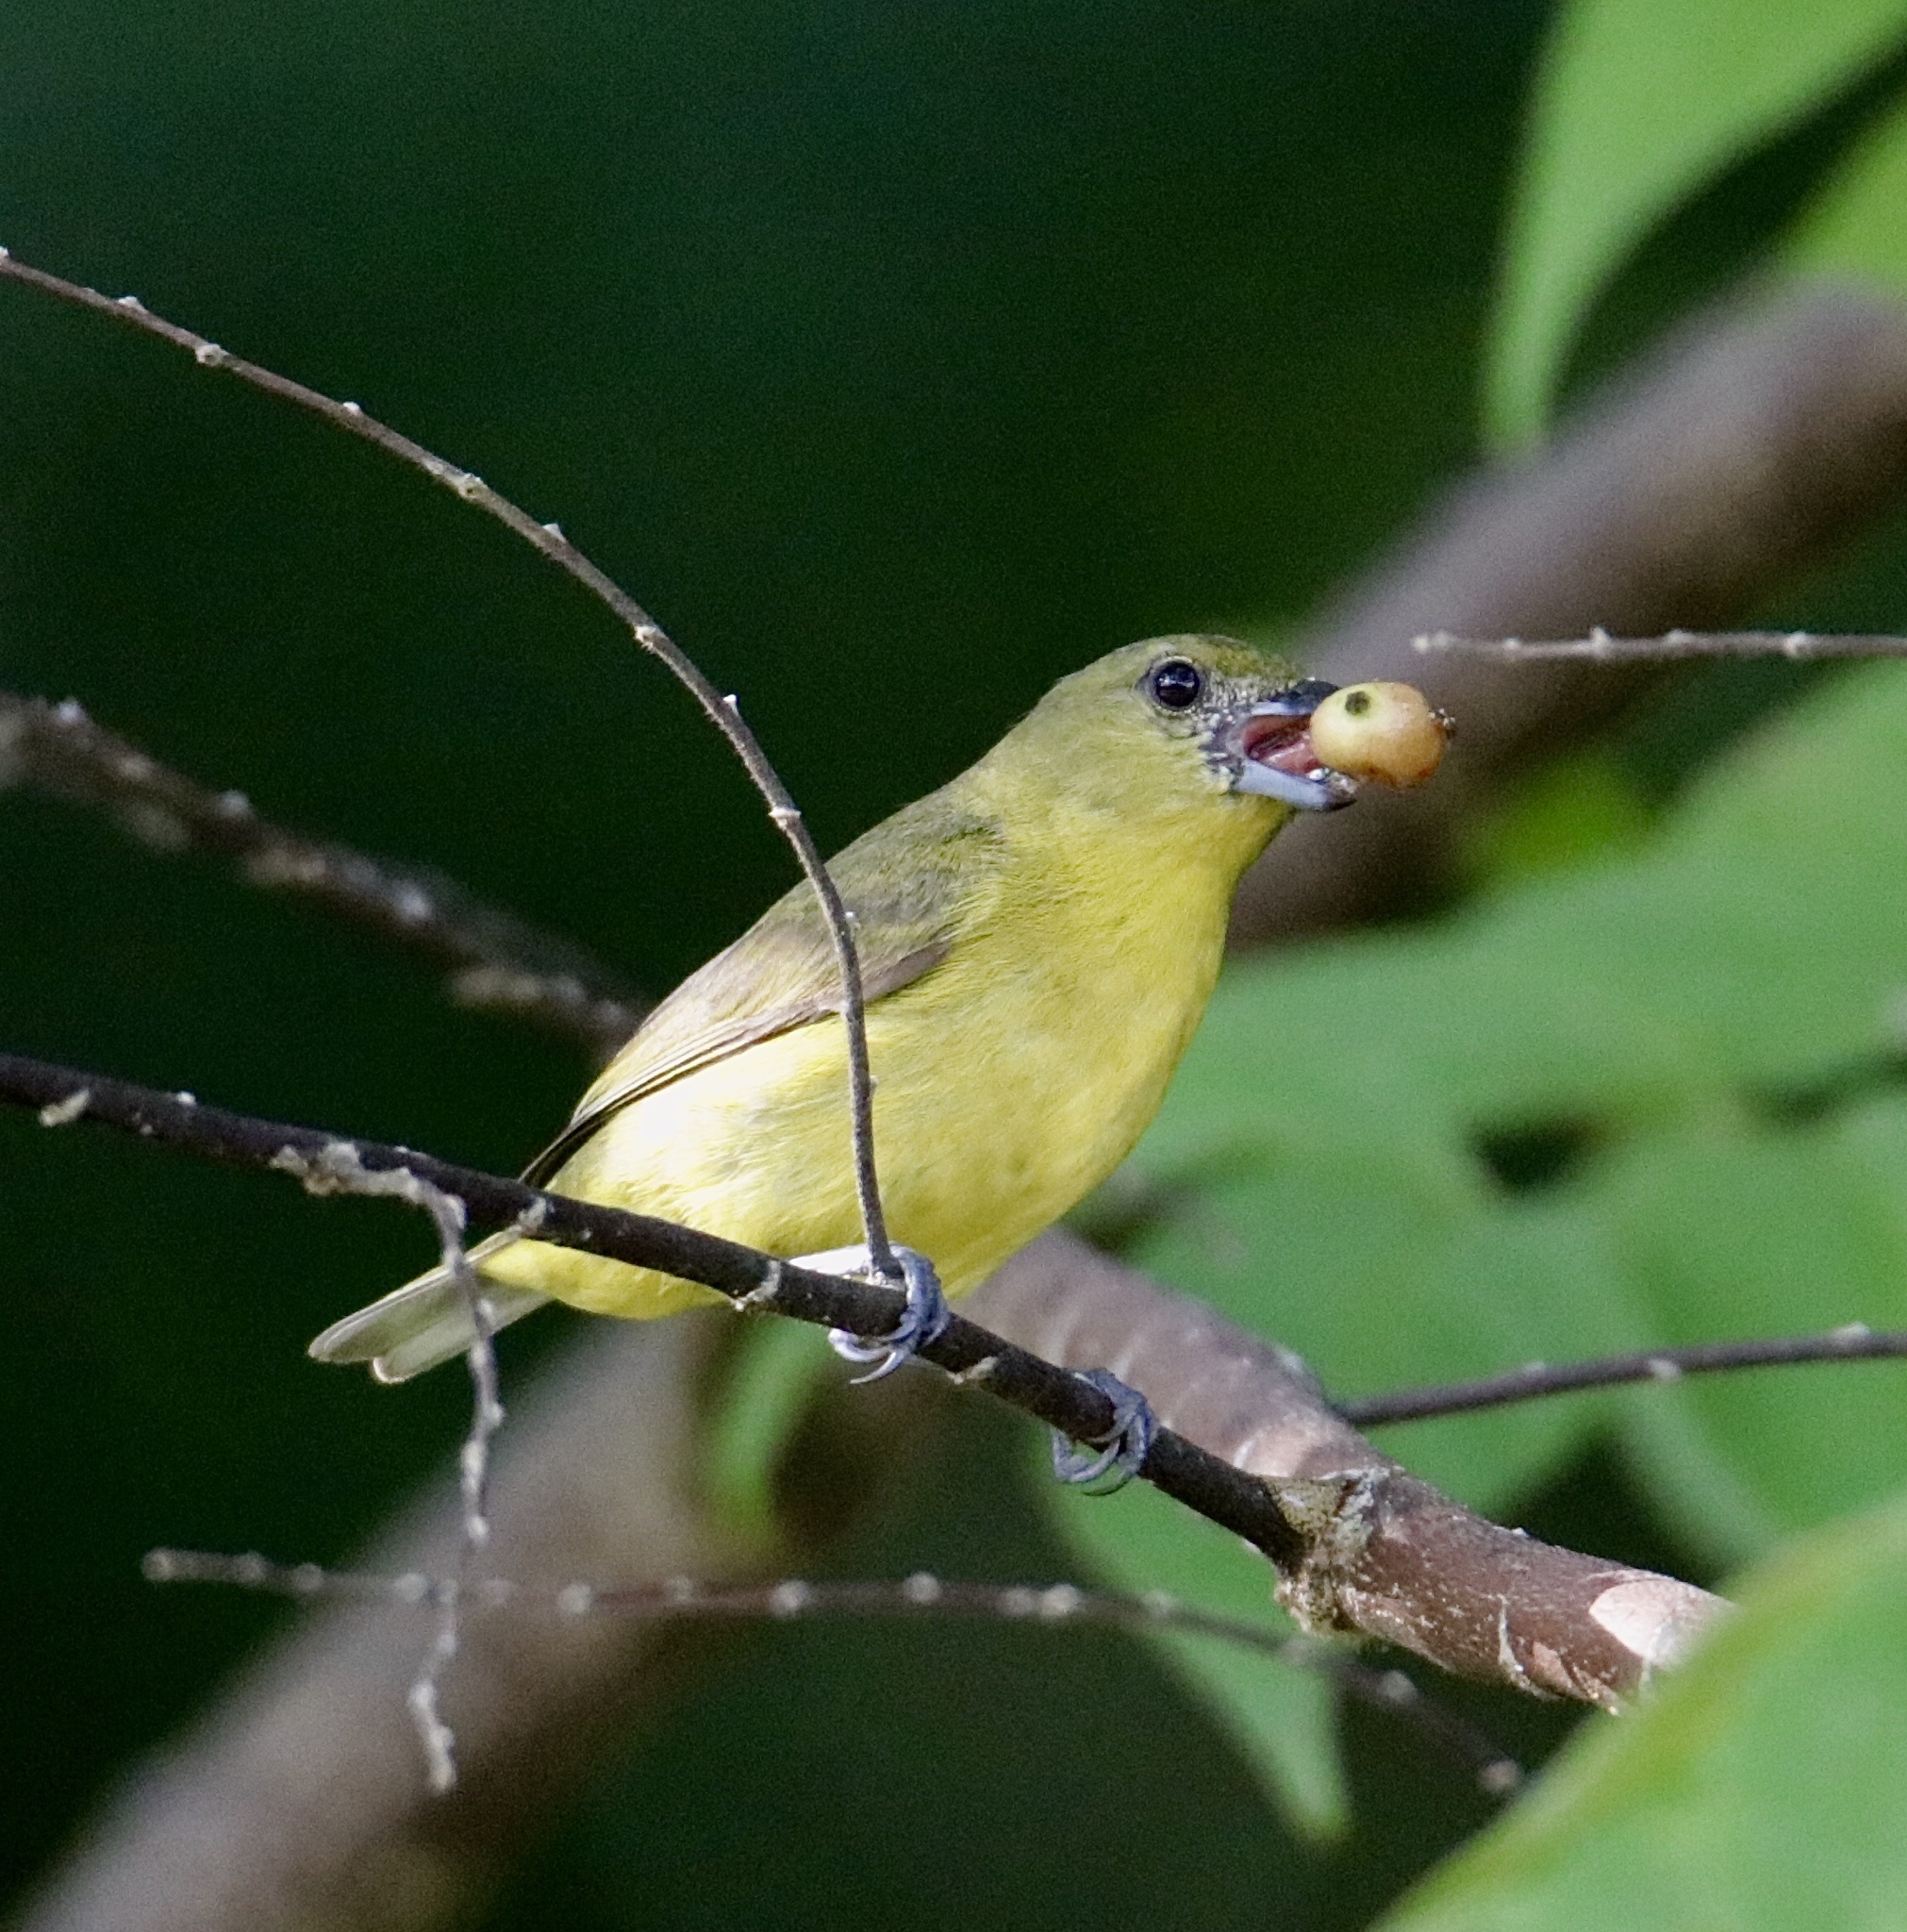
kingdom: Animalia
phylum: Chordata
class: Aves
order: Passeriformes
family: Fringillidae
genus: Euphonia
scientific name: Euphonia laniirostris
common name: Thick-billed euphonia
